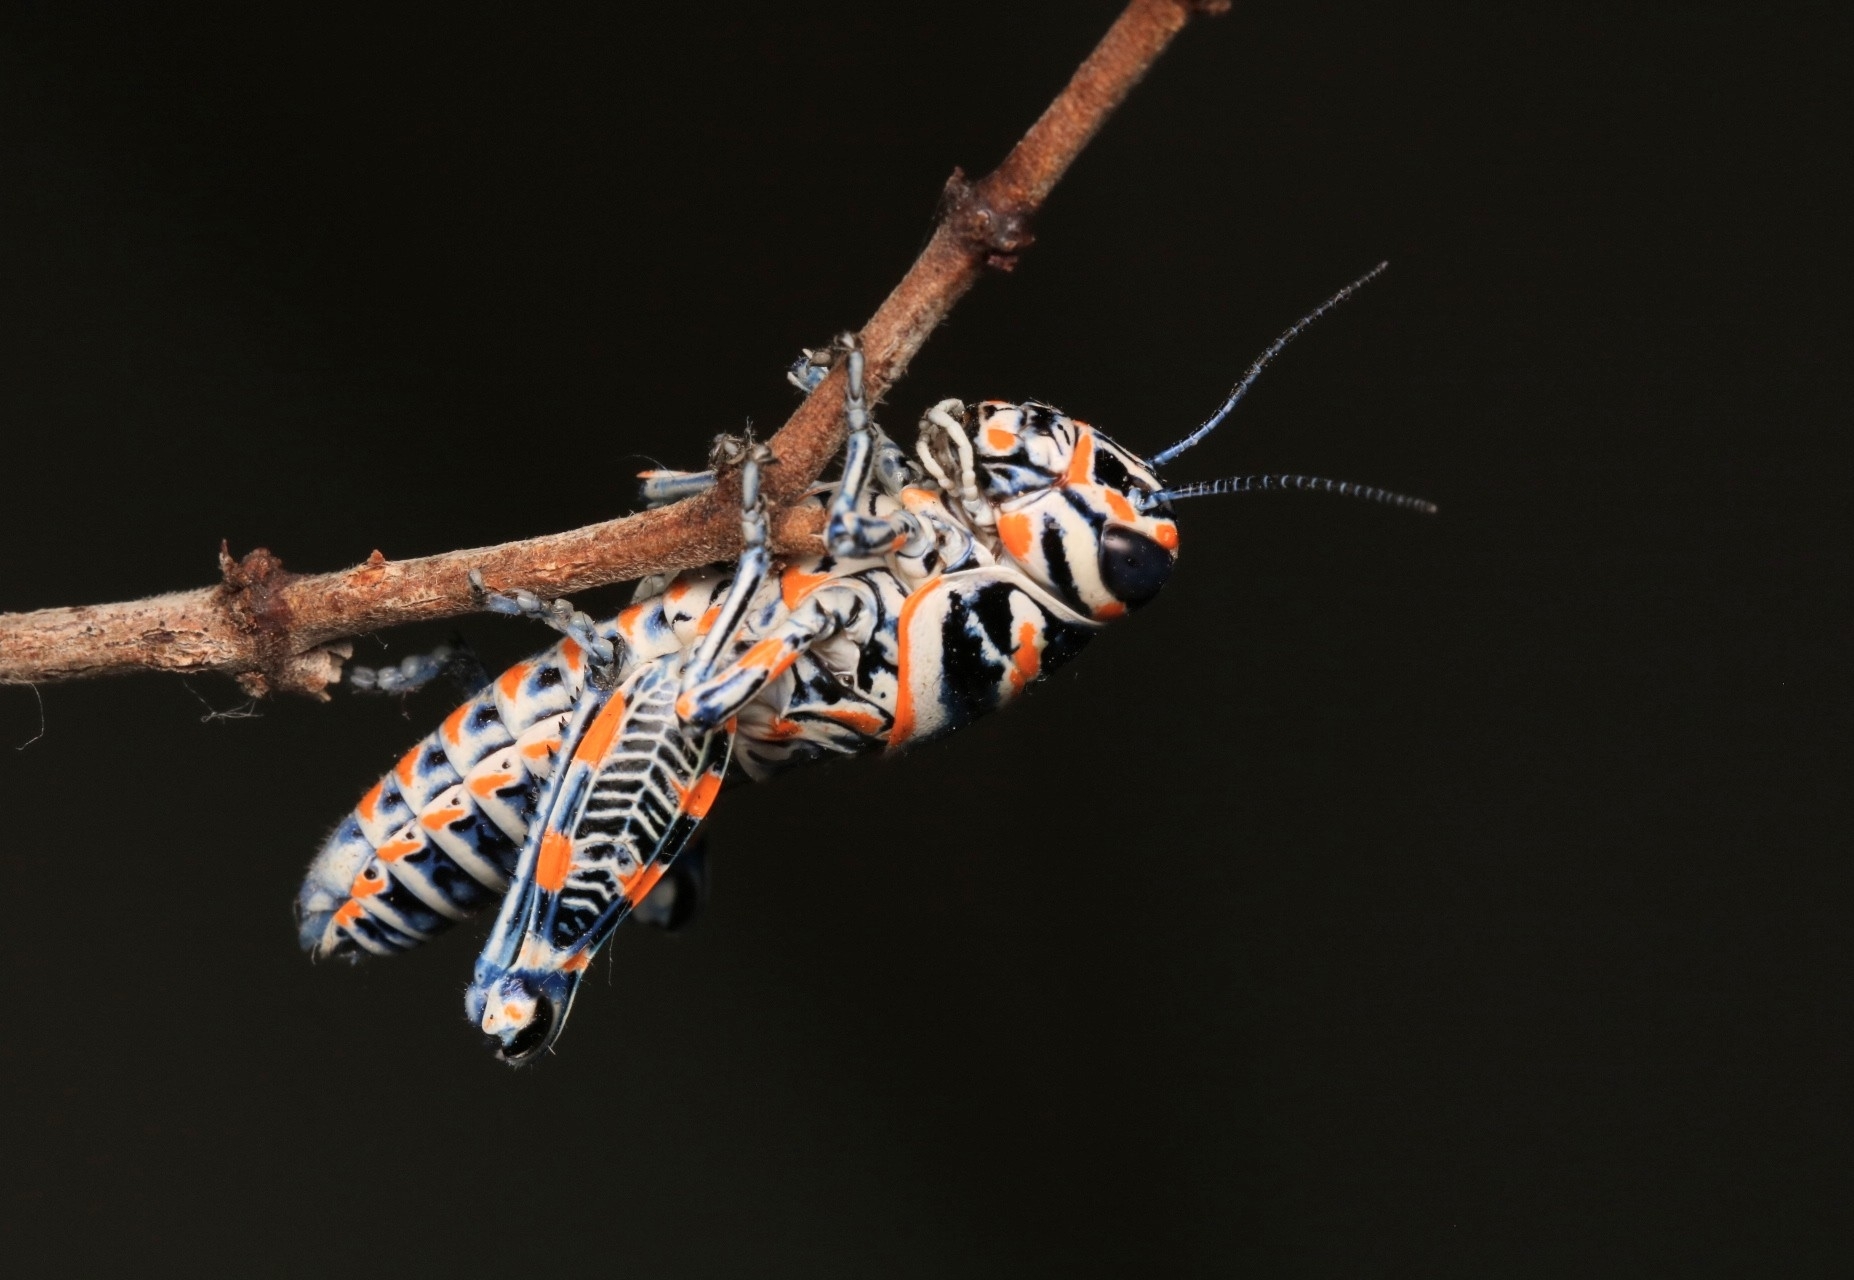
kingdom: Animalia
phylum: Arthropoda
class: Insecta
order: Orthoptera
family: Acrididae
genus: Dactylotum
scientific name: Dactylotum bicolor
